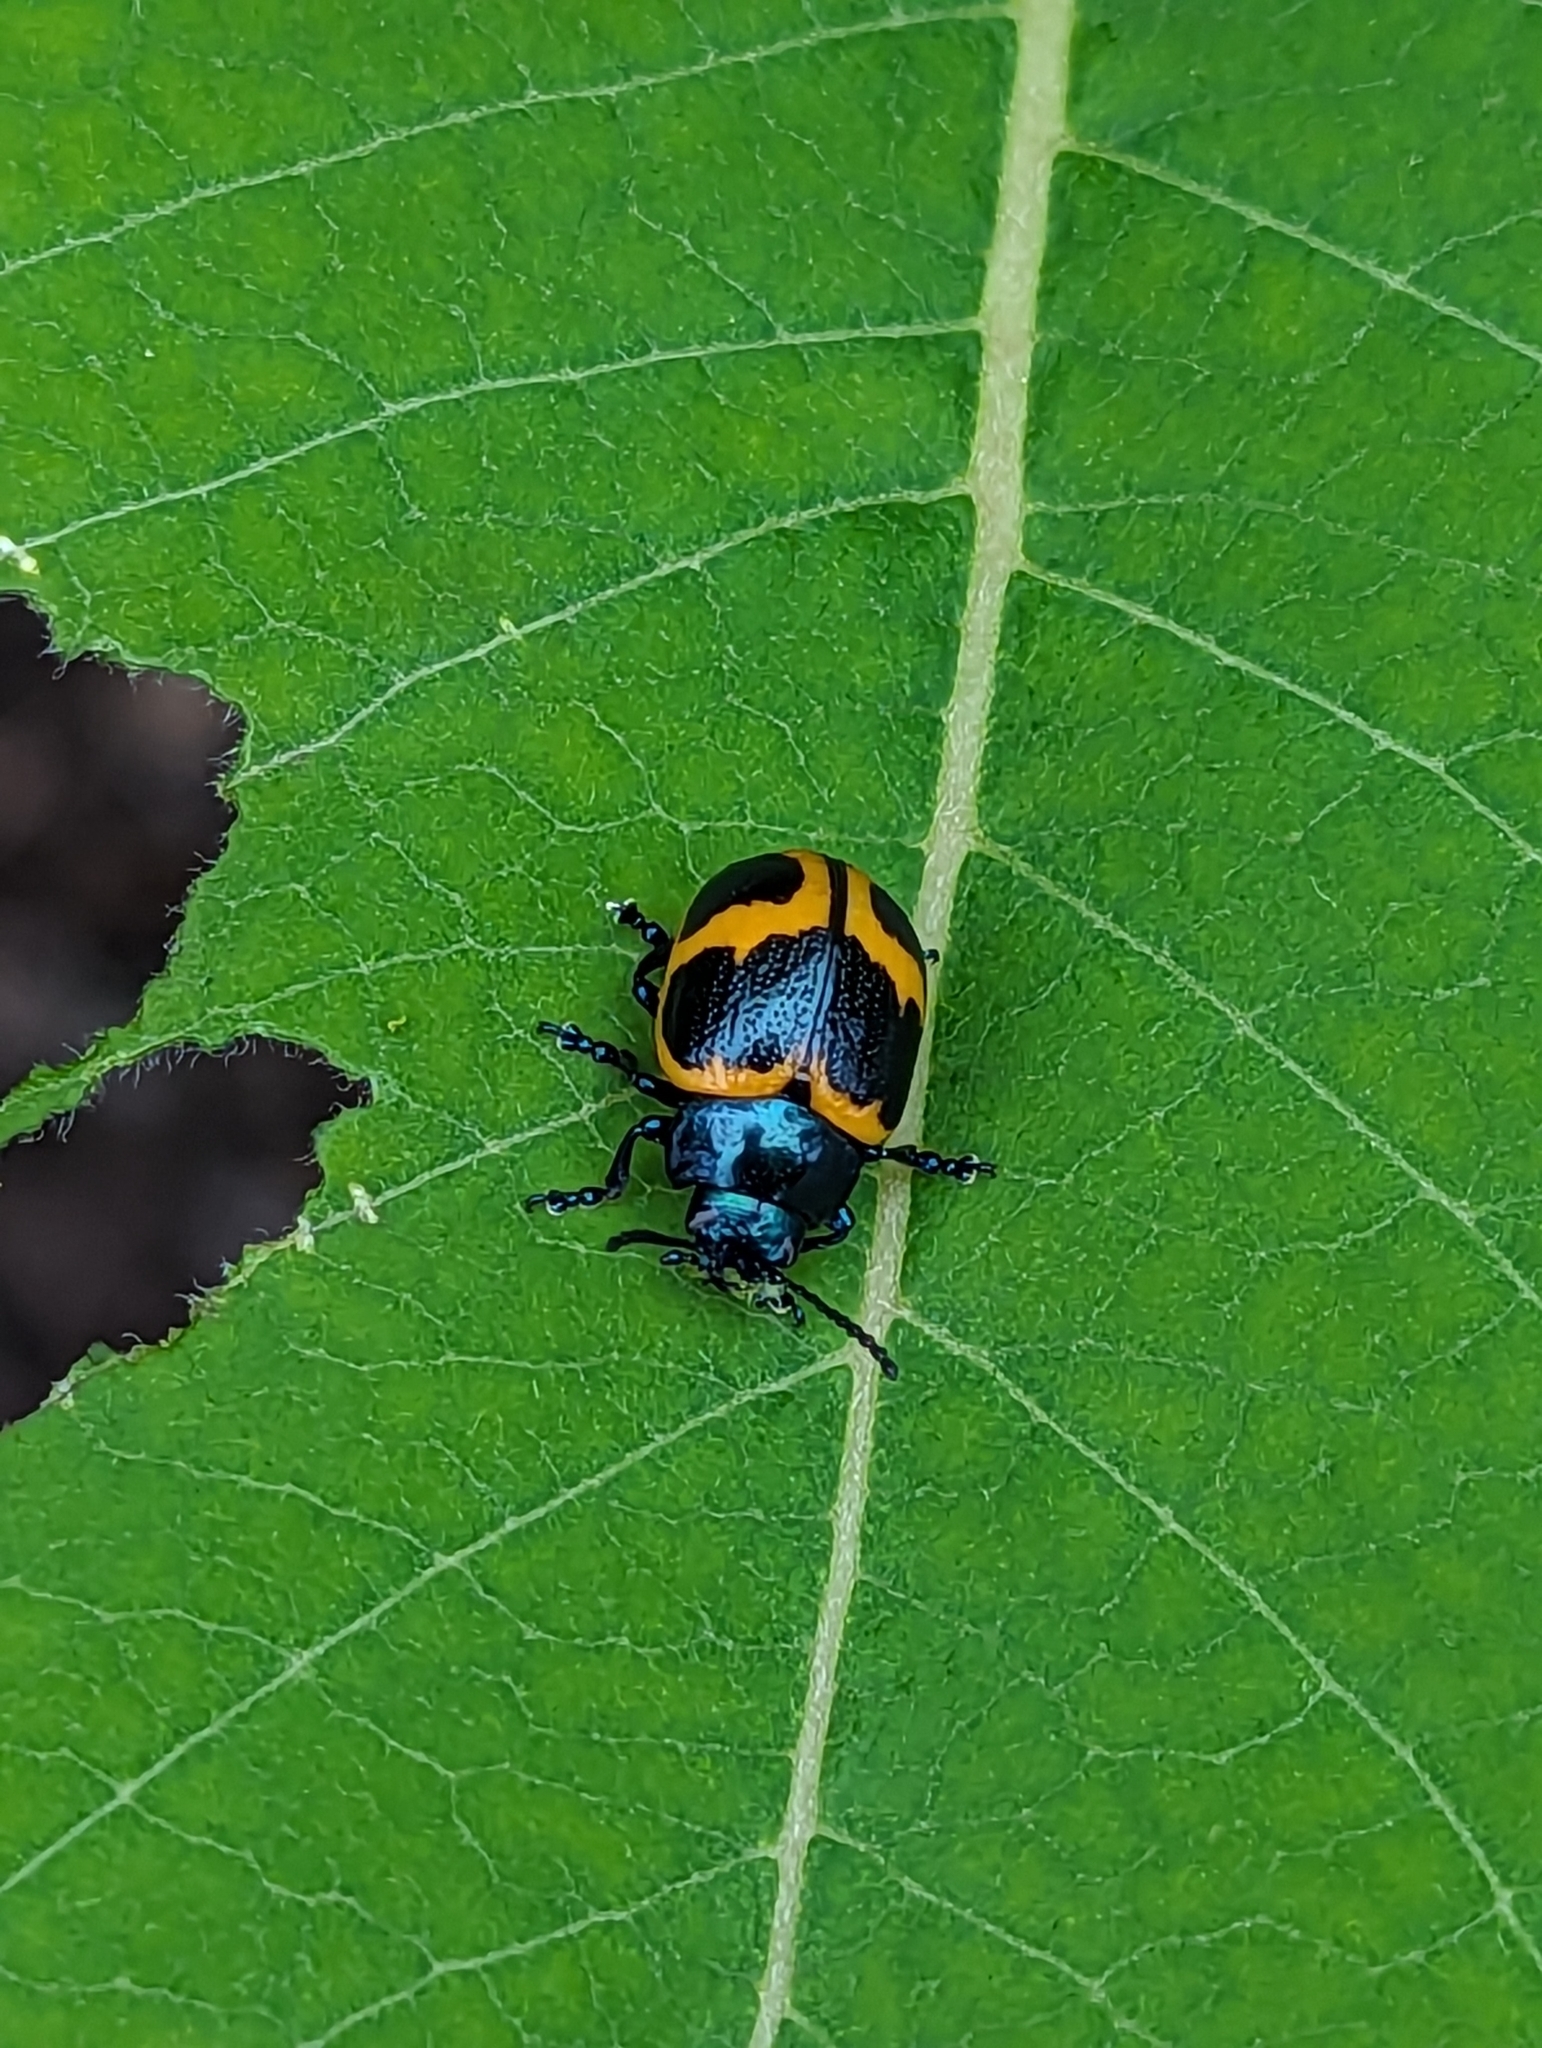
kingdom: Animalia
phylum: Arthropoda
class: Insecta
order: Coleoptera
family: Chrysomelidae
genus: Labidomera
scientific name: Labidomera clivicollis
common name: Swamp milkweed leaf beetle
